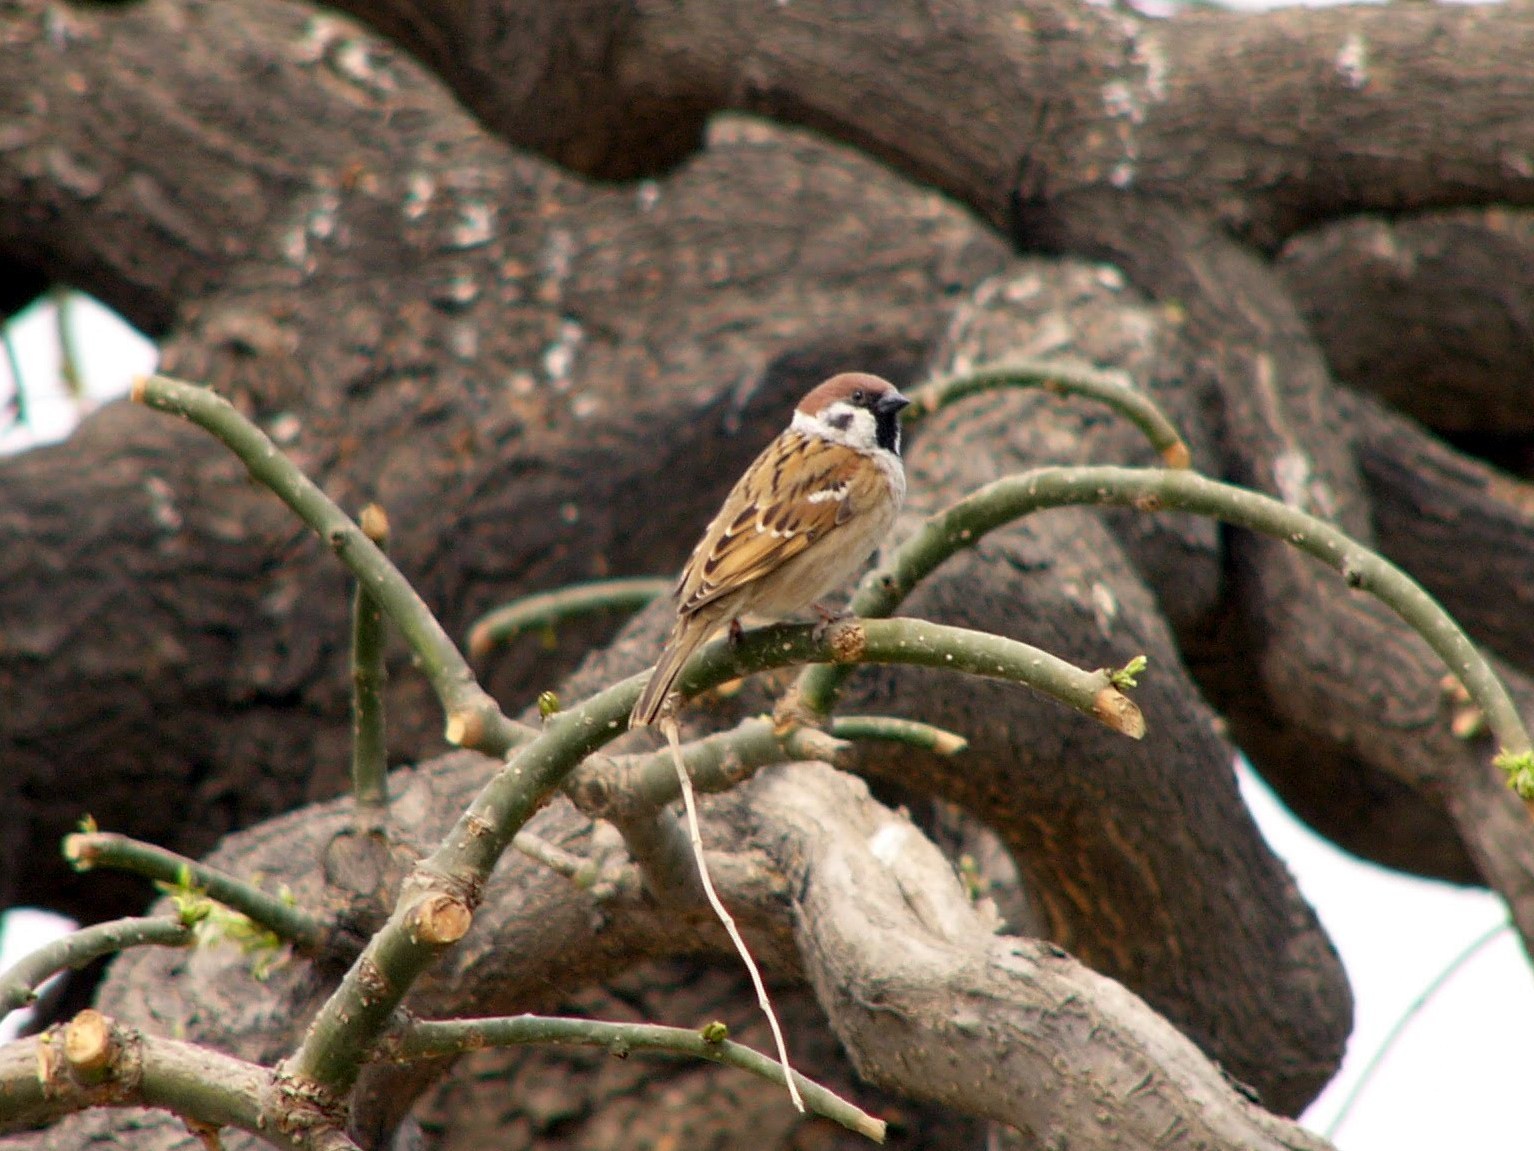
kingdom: Animalia
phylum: Chordata
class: Aves
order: Passeriformes
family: Passeridae
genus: Passer
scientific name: Passer montanus
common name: Eurasian tree sparrow
